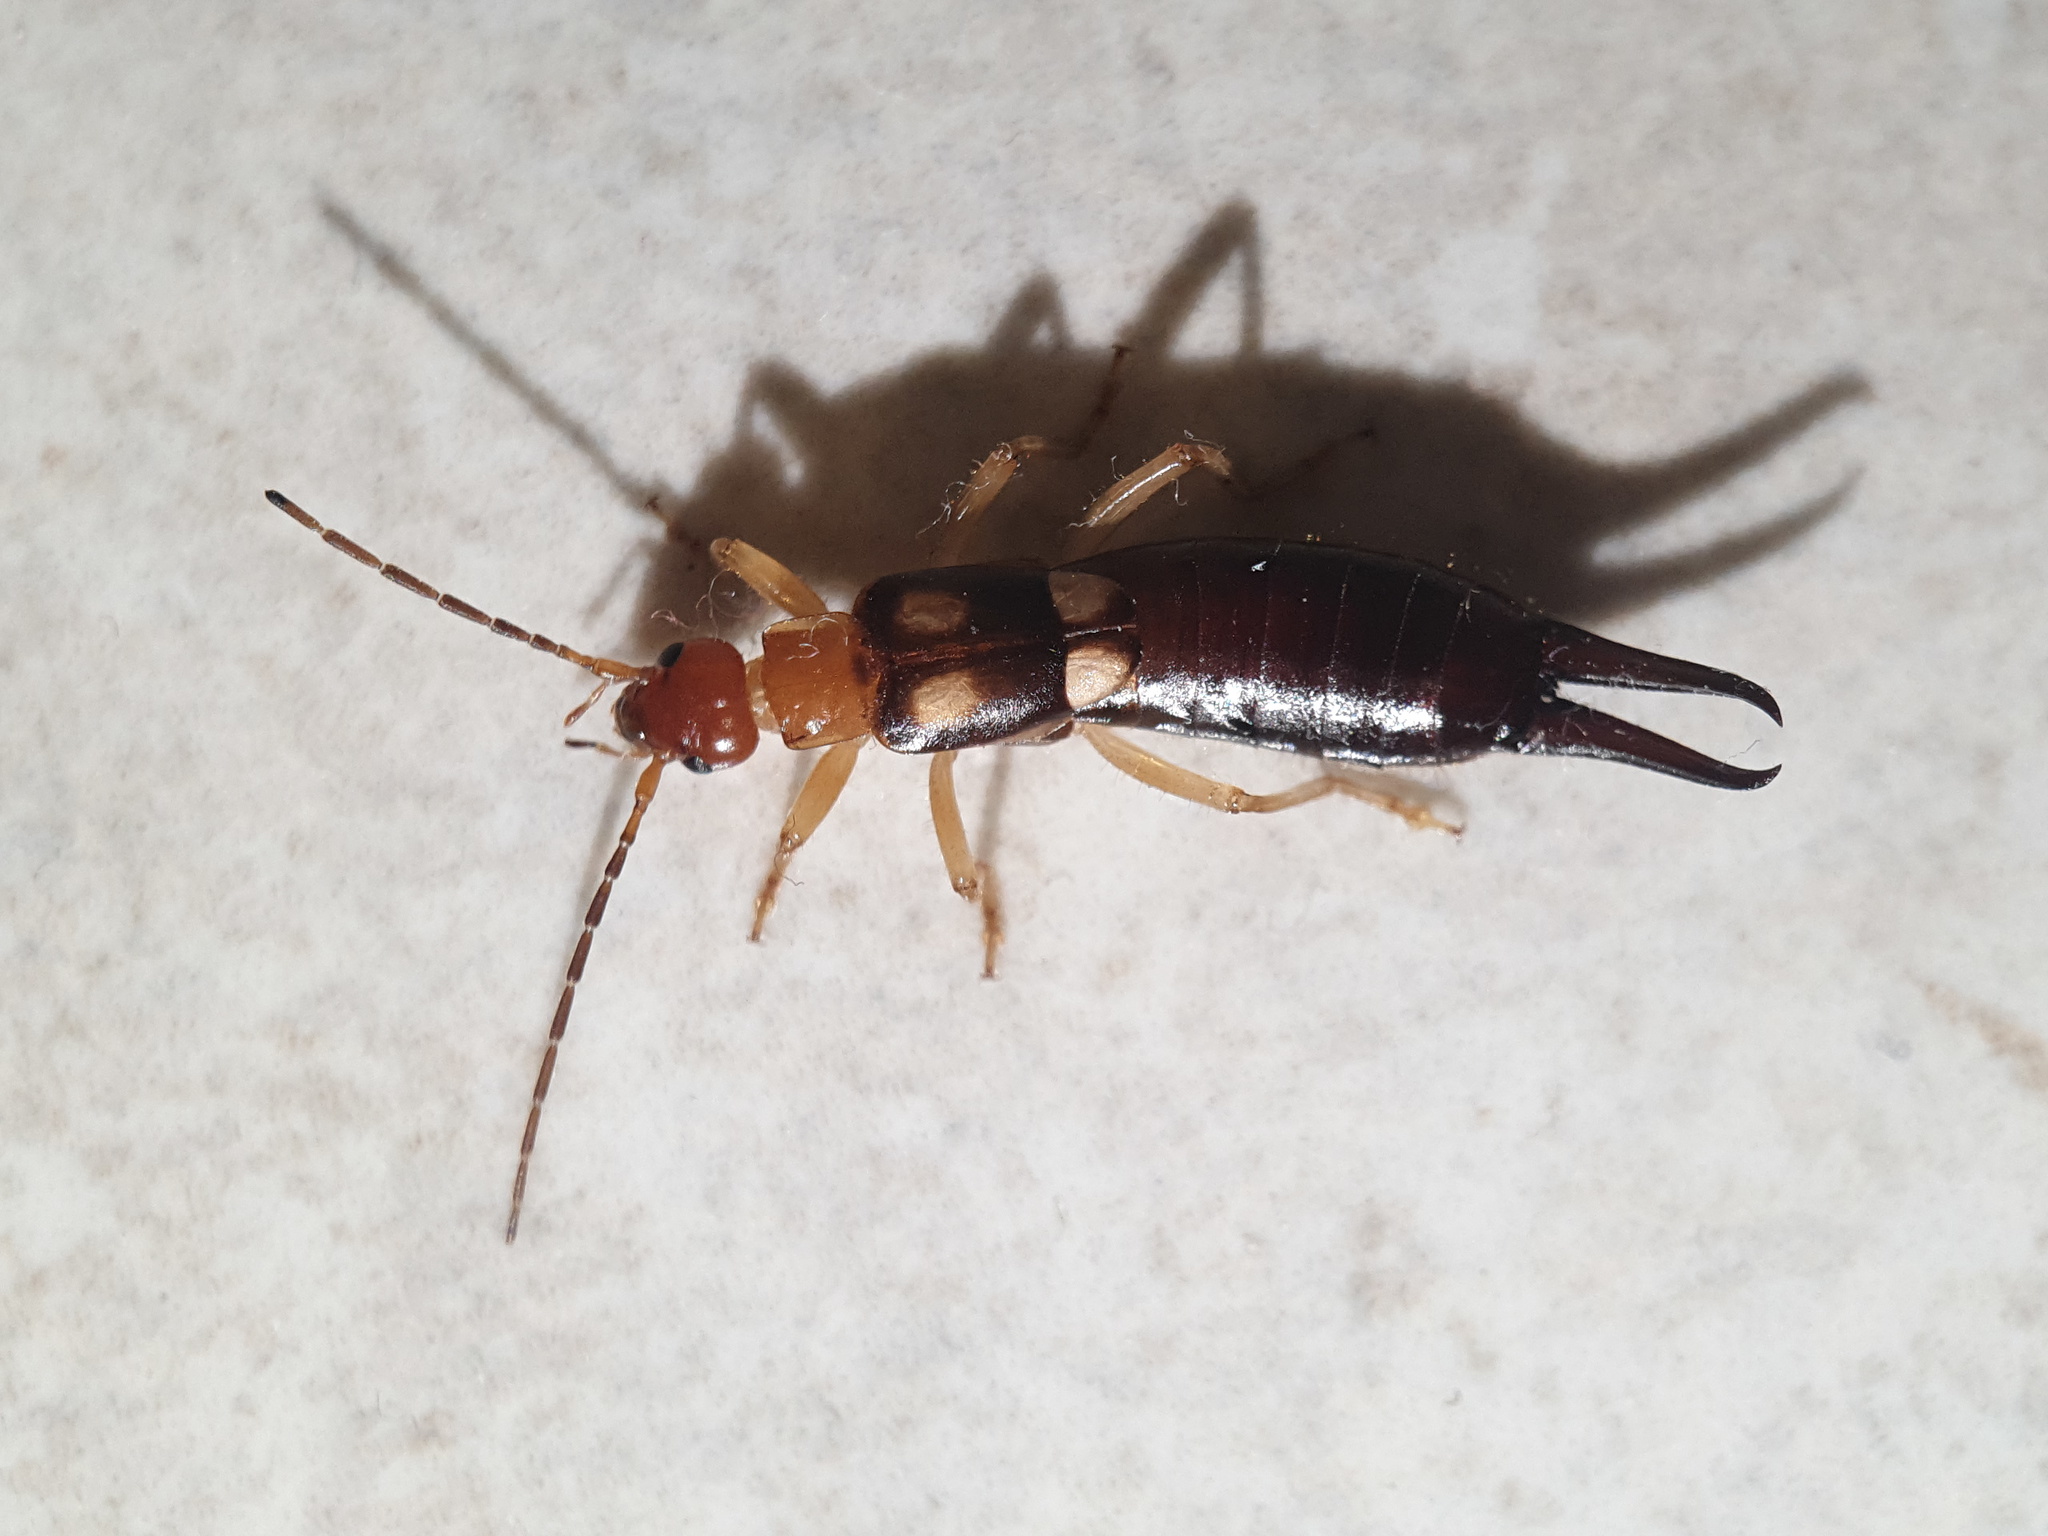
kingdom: Animalia
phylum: Arthropoda
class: Insecta
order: Dermaptera
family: Forficulidae
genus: Forficula
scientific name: Forficula smyrnensis
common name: Smyrna earwig
